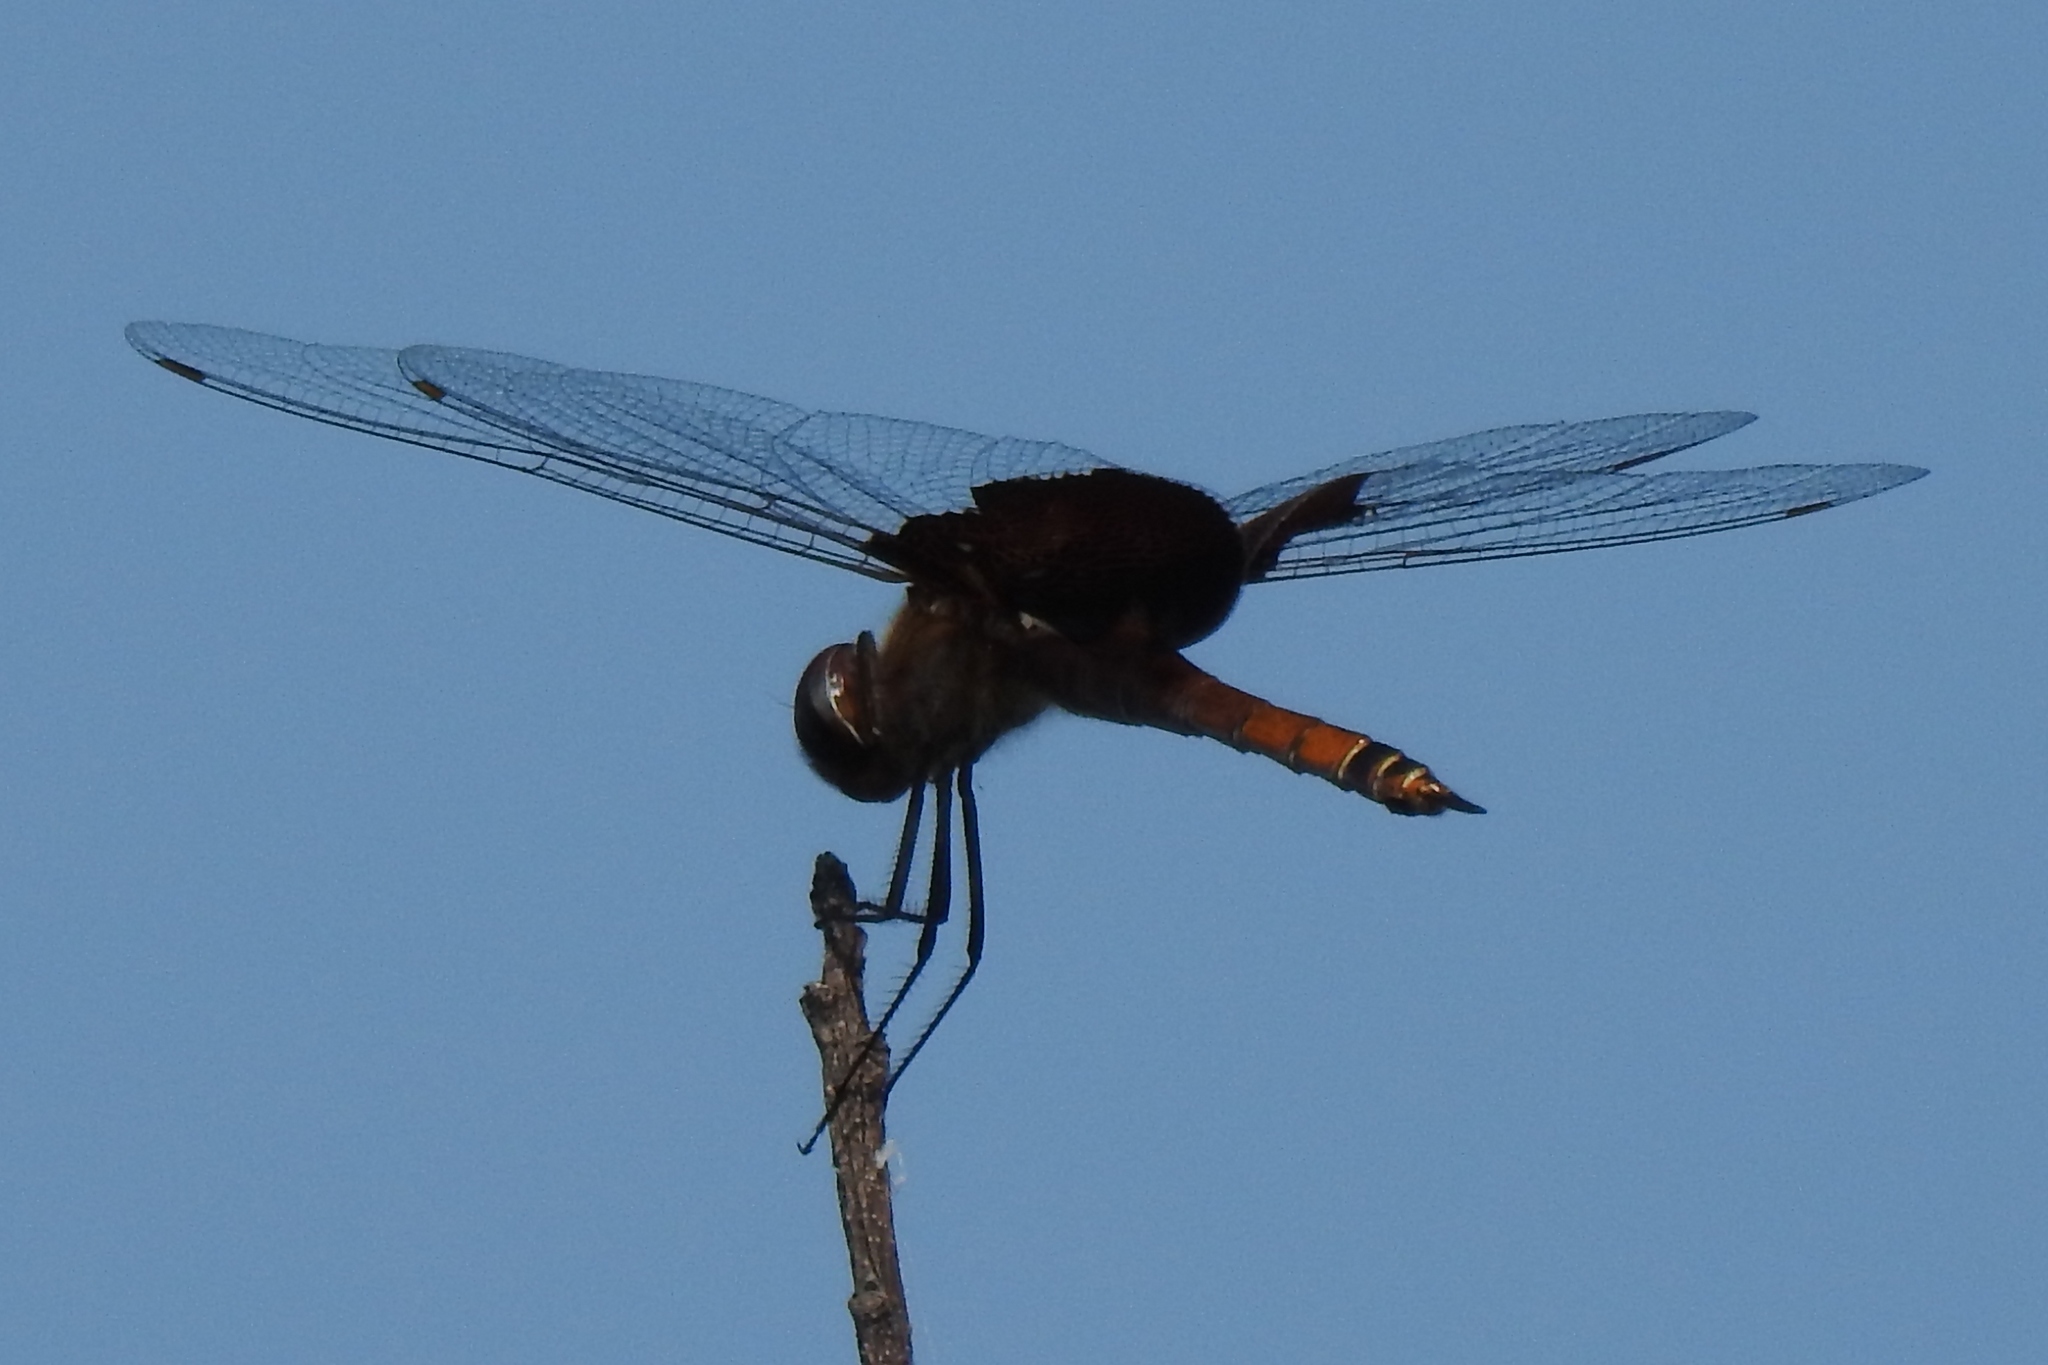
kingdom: Animalia
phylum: Arthropoda
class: Insecta
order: Odonata
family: Libellulidae
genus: Tramea
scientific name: Tramea carolina
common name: Carolina saddlebags
